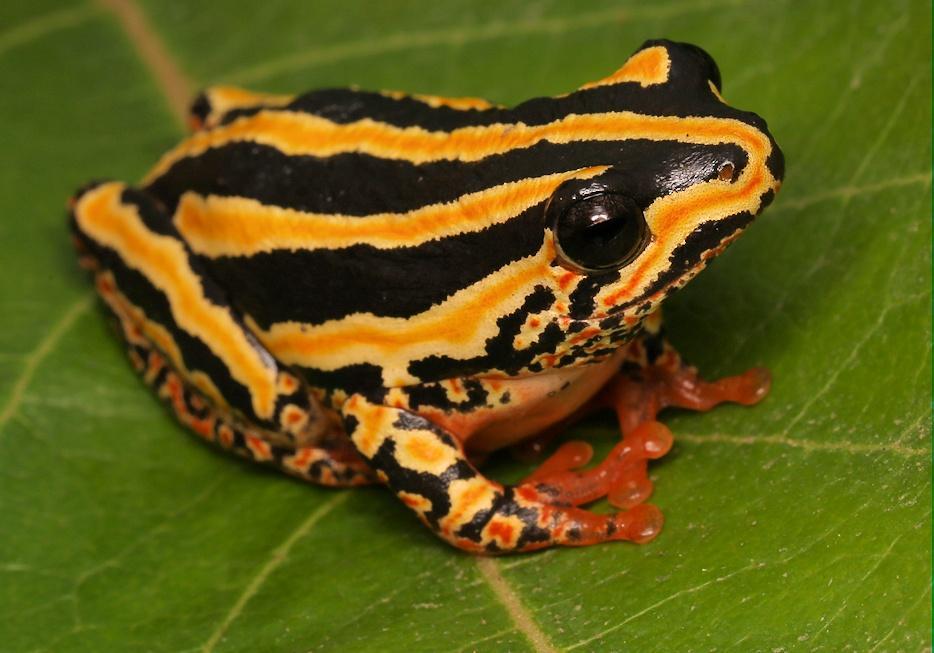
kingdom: Animalia
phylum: Chordata
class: Amphibia
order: Anura
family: Hyperoliidae
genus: Hyperolius
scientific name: Hyperolius marmoratus
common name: Painted reed frog
